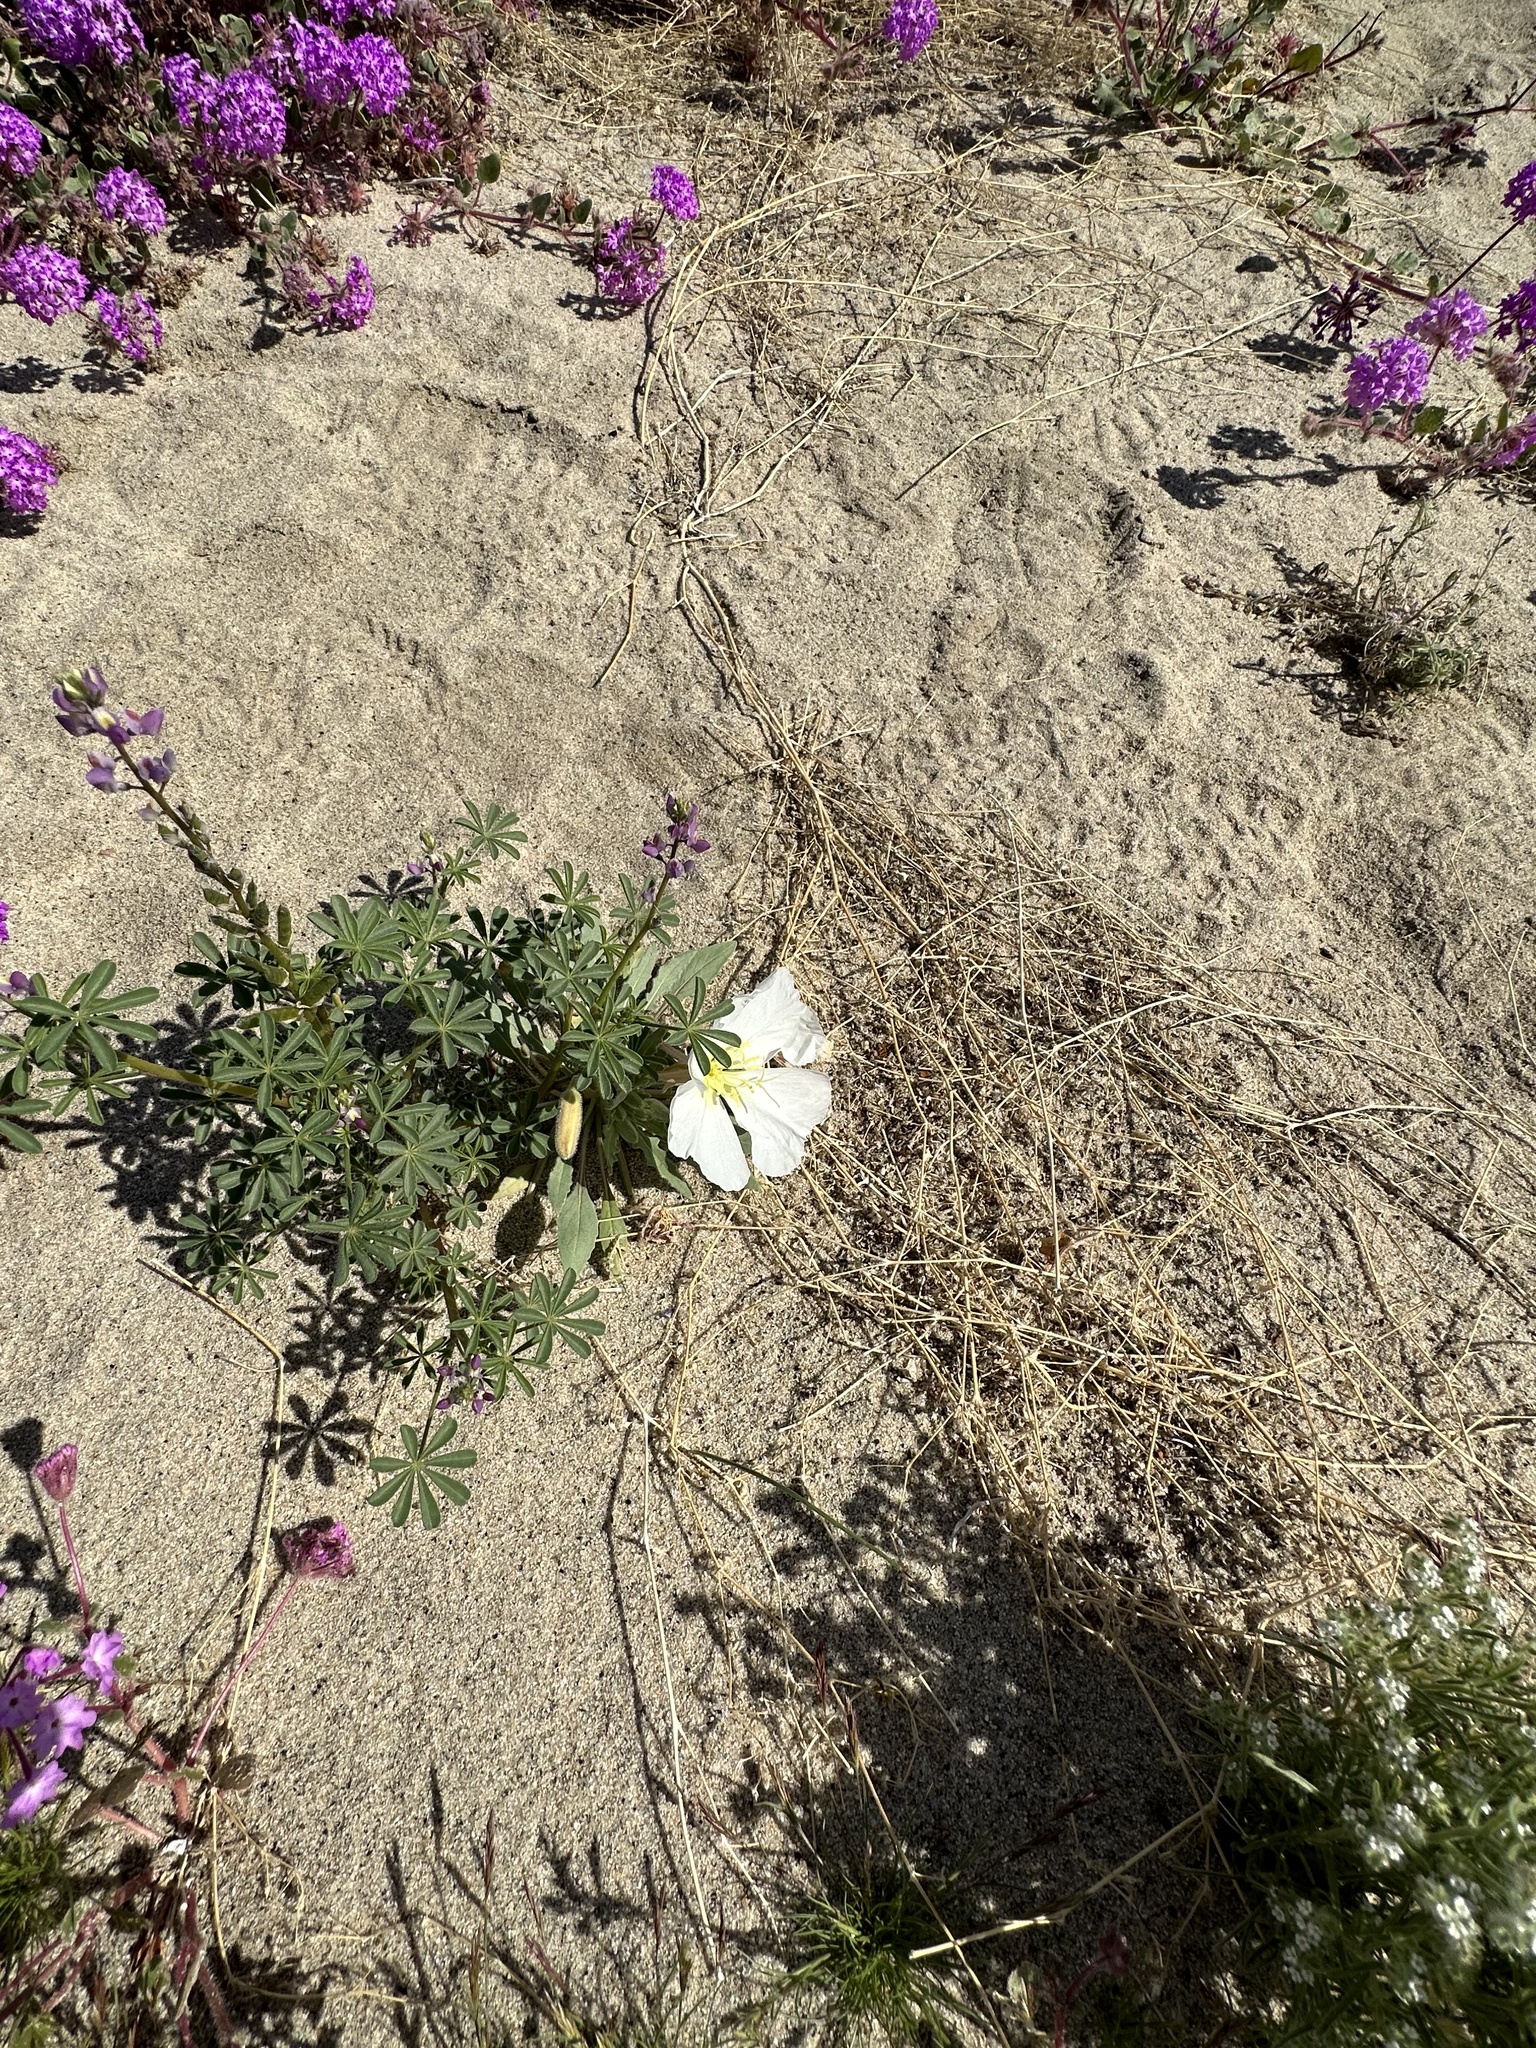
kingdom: Plantae
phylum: Tracheophyta
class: Magnoliopsida
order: Myrtales
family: Onagraceae
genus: Oenothera
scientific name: Oenothera deltoides
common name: Basket evening-primrose
